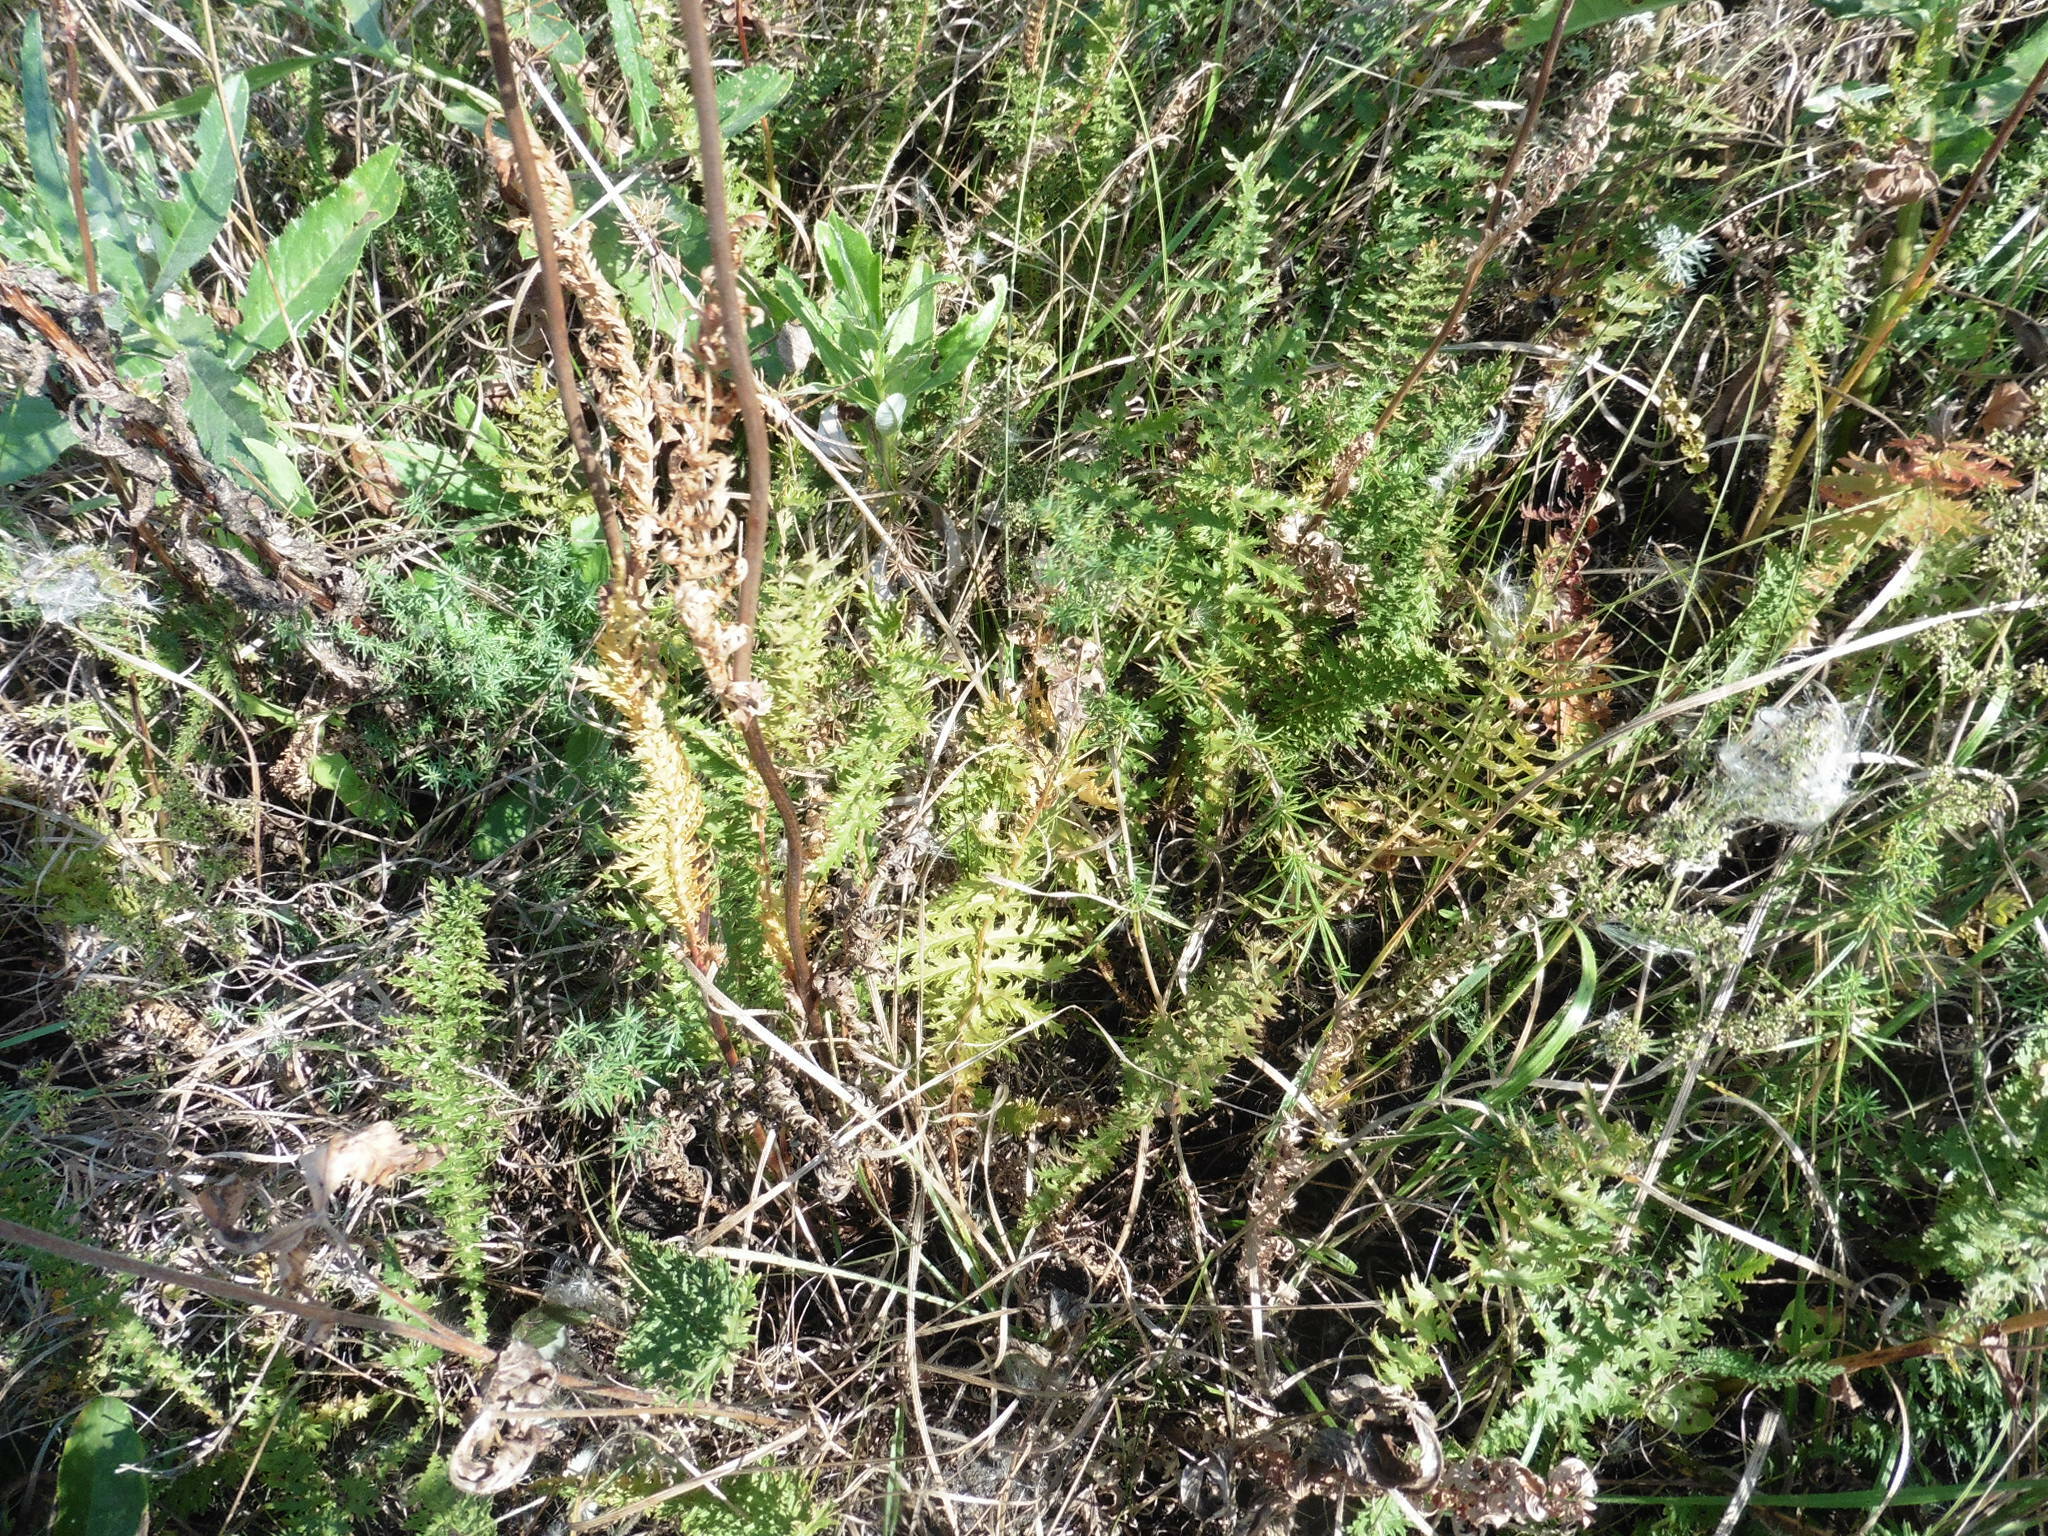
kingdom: Plantae
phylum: Tracheophyta
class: Magnoliopsida
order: Rosales
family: Rosaceae
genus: Filipendula
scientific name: Filipendula vulgaris
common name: Dropwort
